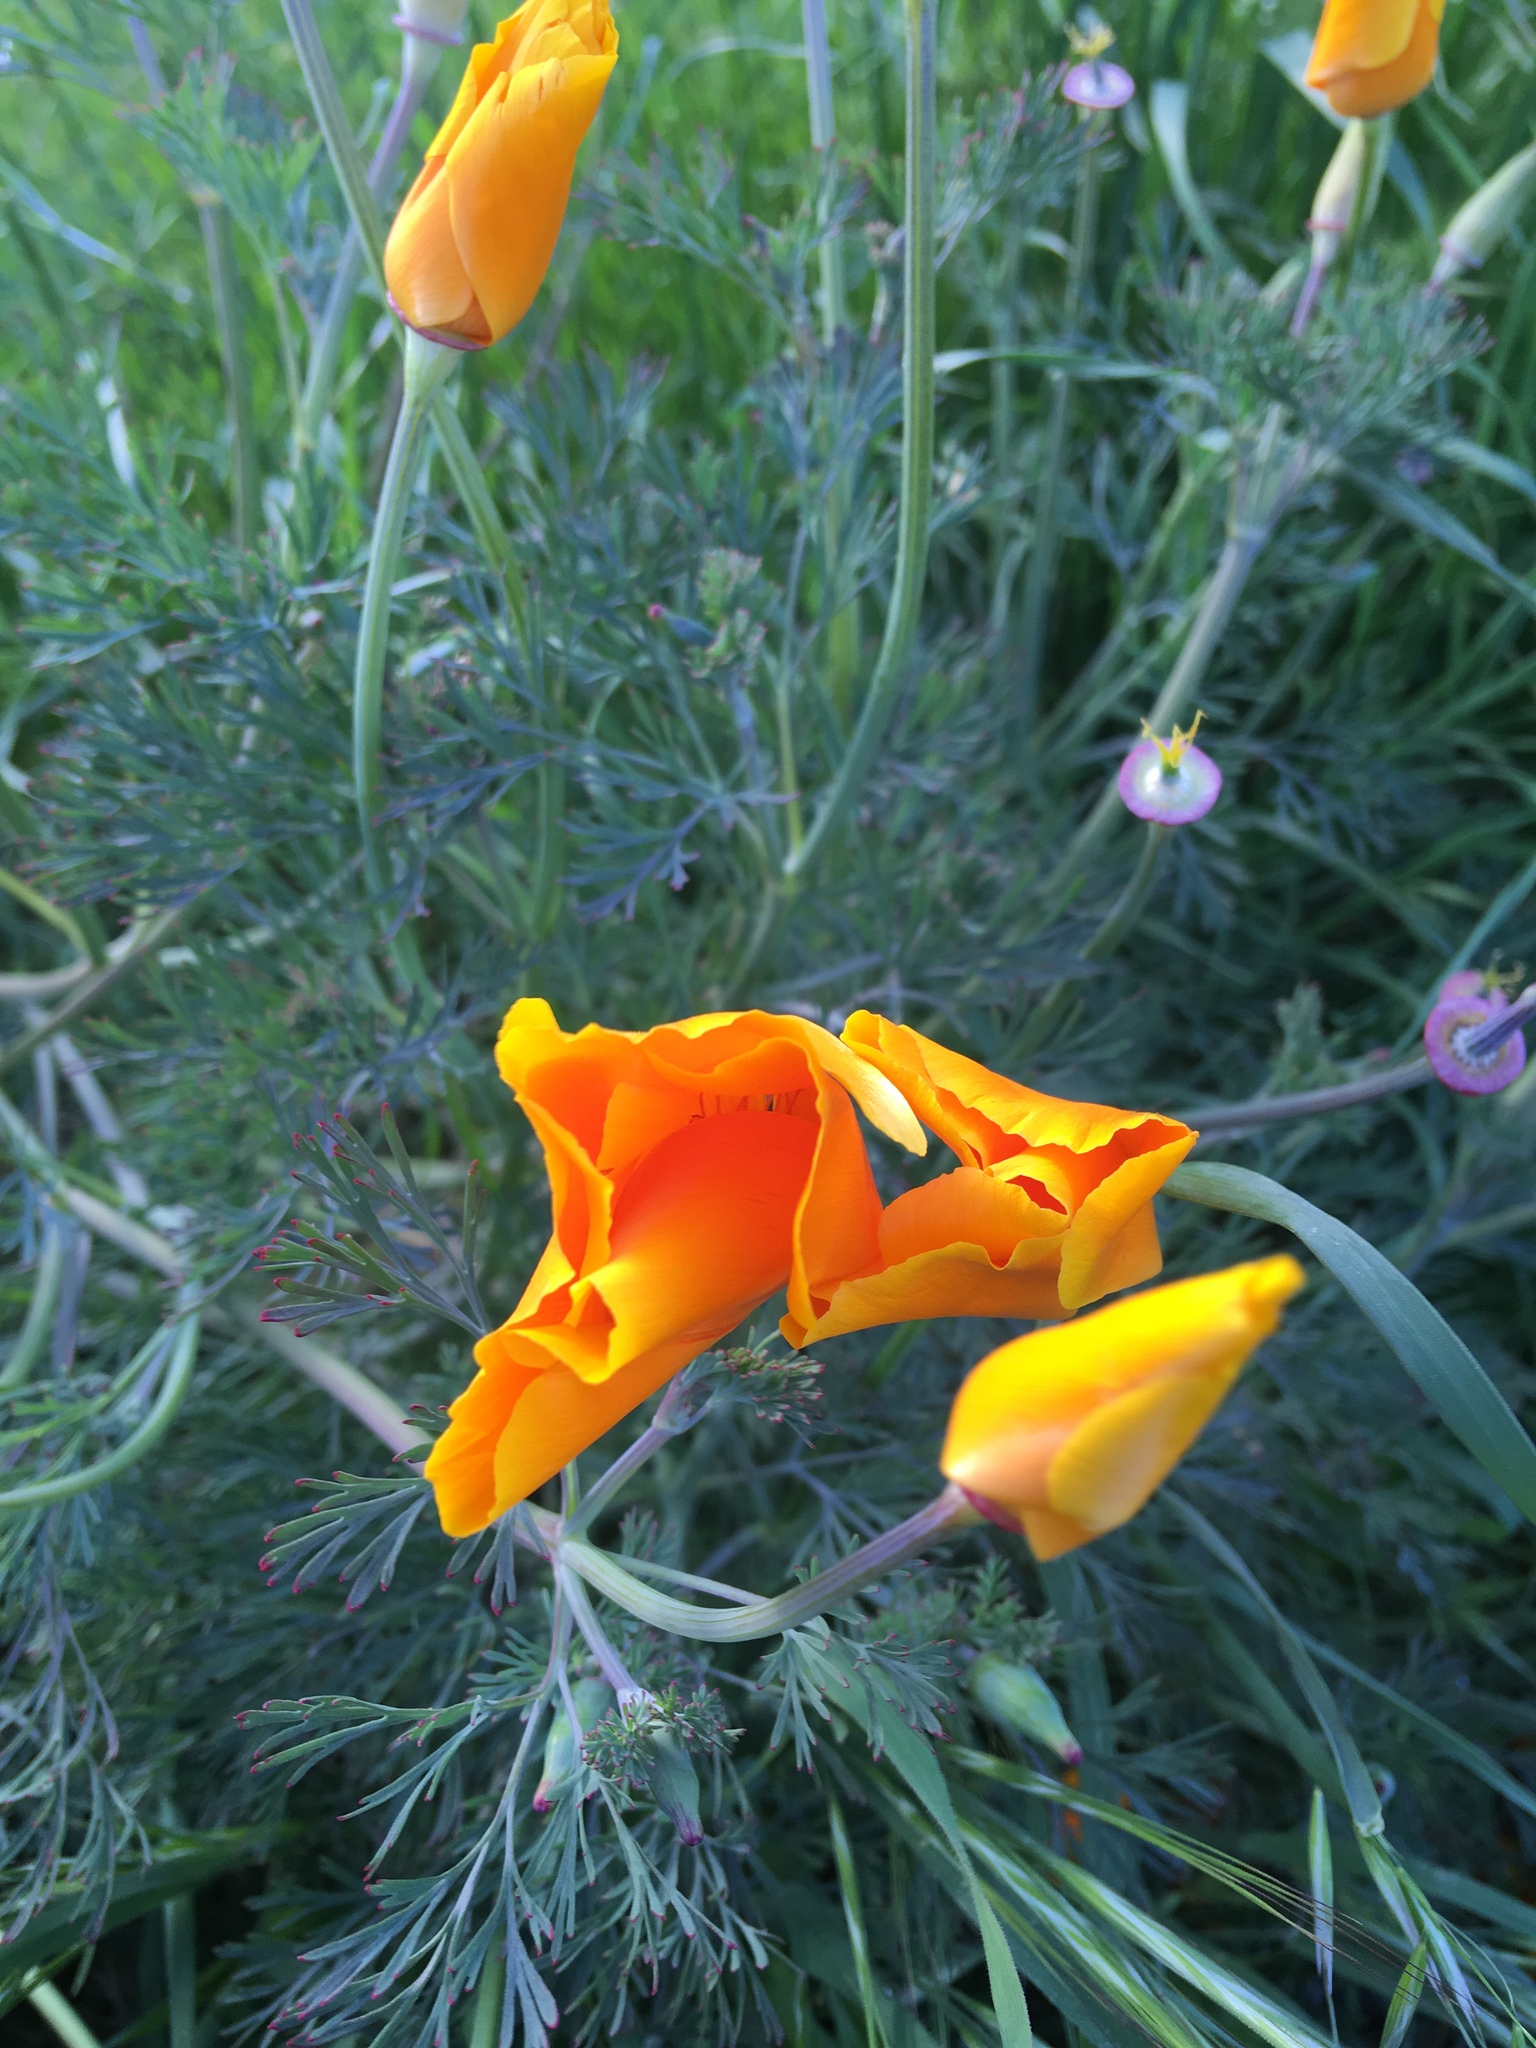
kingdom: Plantae
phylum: Tracheophyta
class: Magnoliopsida
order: Ranunculales
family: Papaveraceae
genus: Eschscholzia
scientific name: Eschscholzia californica
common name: California poppy
